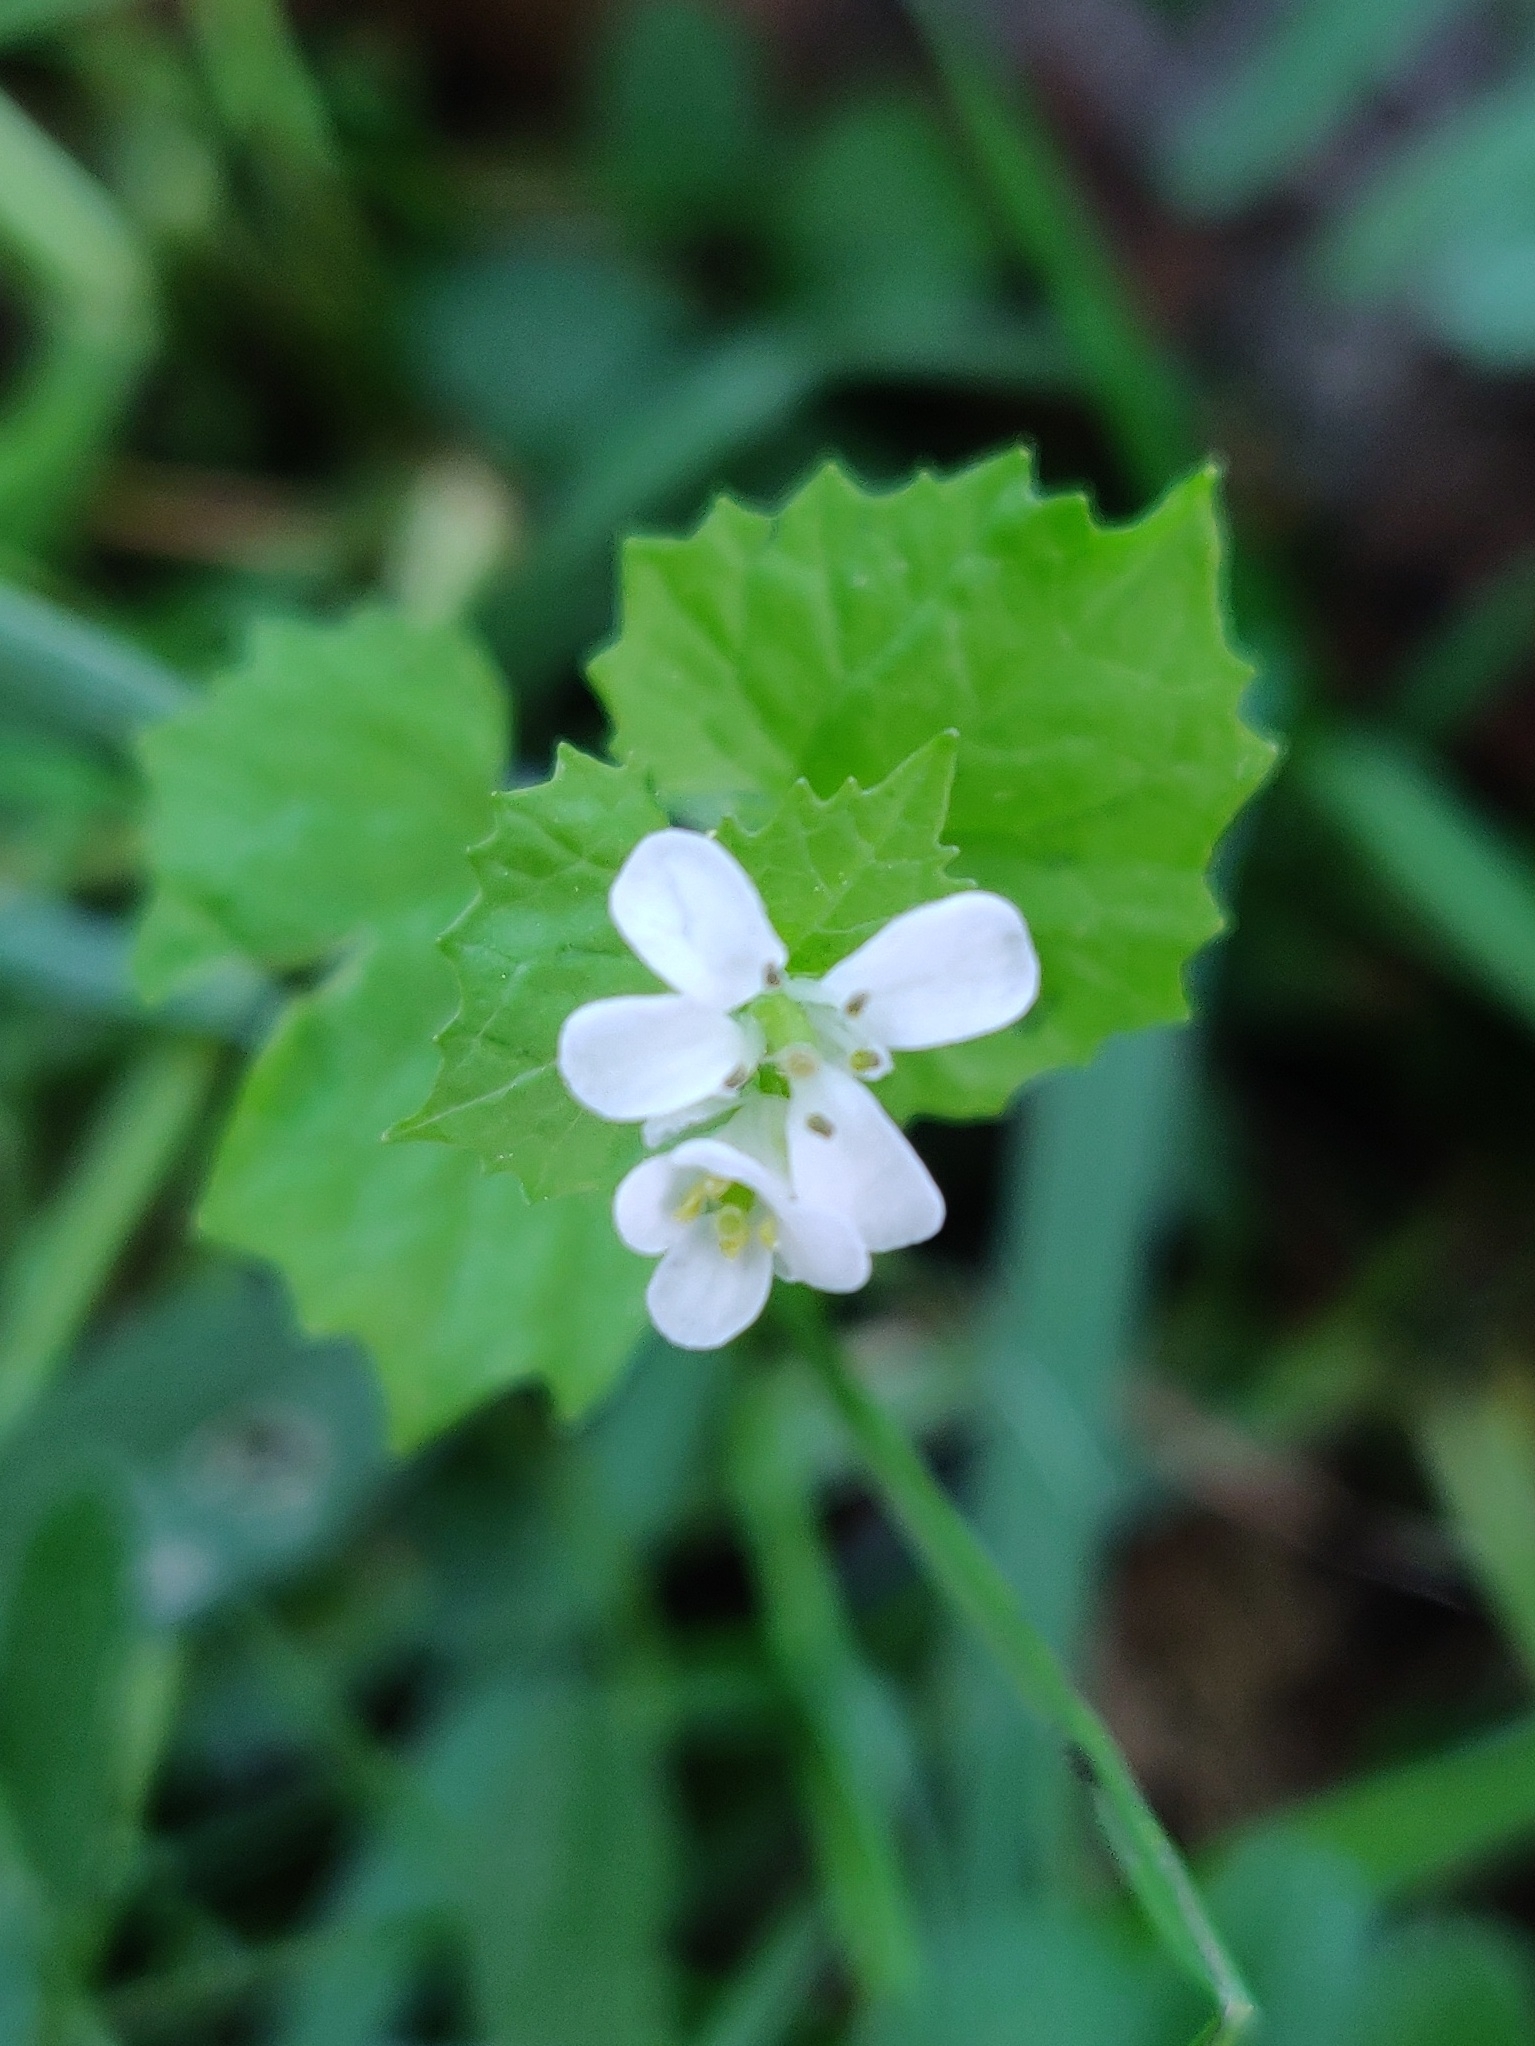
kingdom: Plantae
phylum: Tracheophyta
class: Magnoliopsida
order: Brassicales
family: Brassicaceae
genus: Alliaria
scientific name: Alliaria petiolata
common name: Garlic mustard
